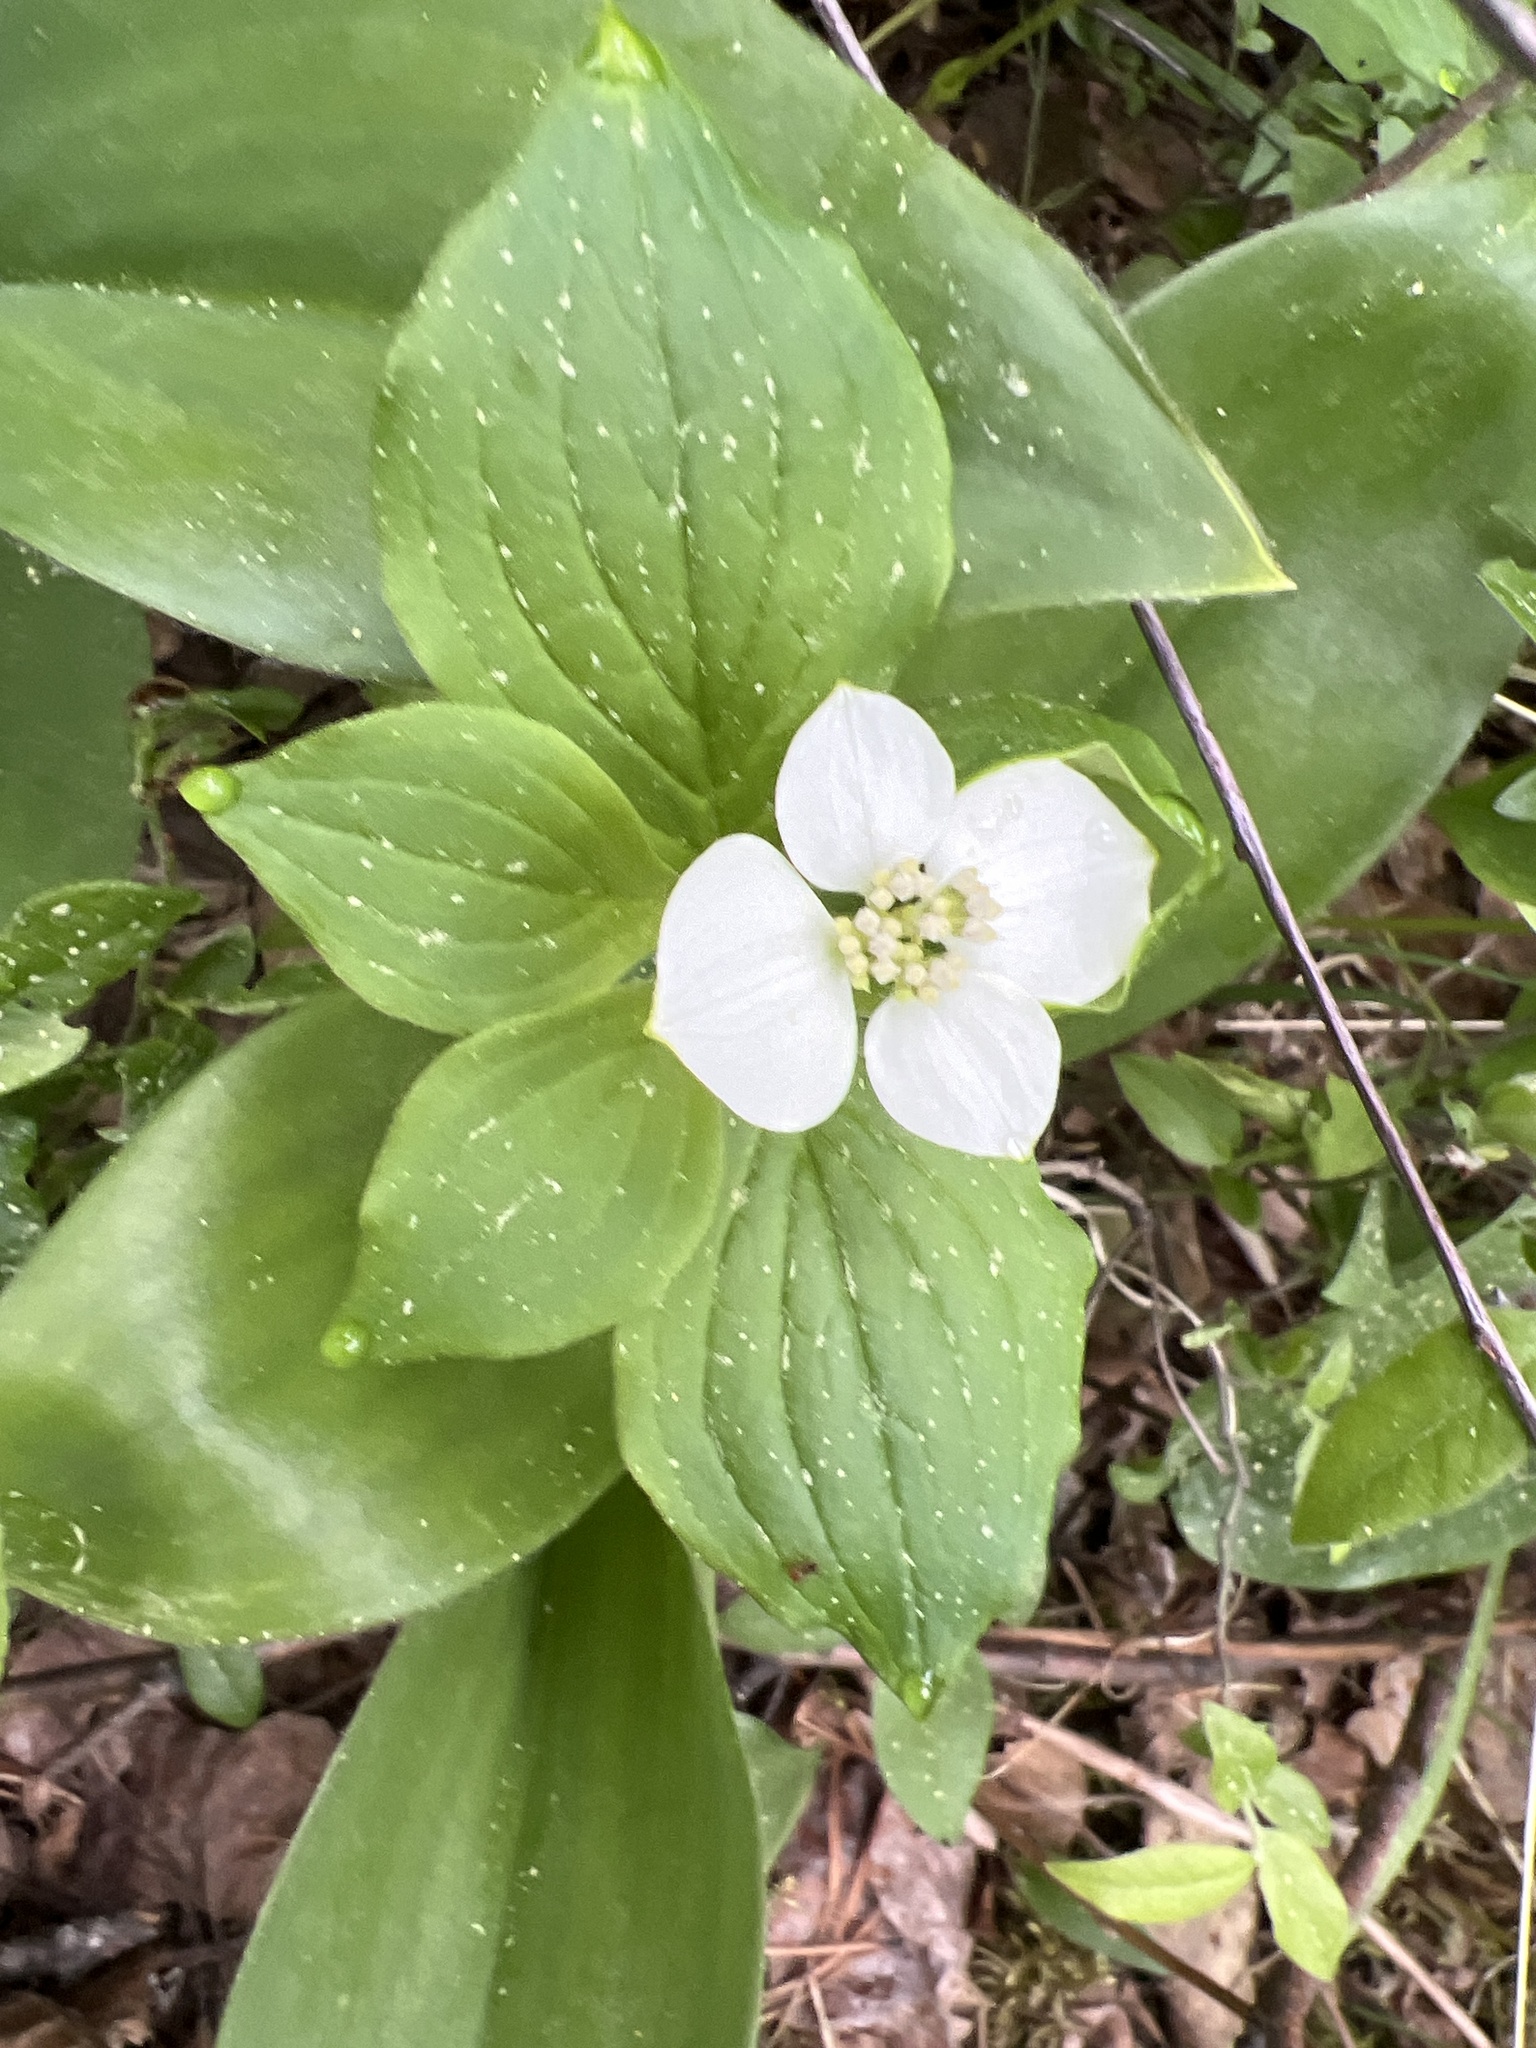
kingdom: Plantae
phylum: Tracheophyta
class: Magnoliopsida
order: Cornales
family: Cornaceae
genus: Cornus
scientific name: Cornus canadensis
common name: Creeping dogwood
